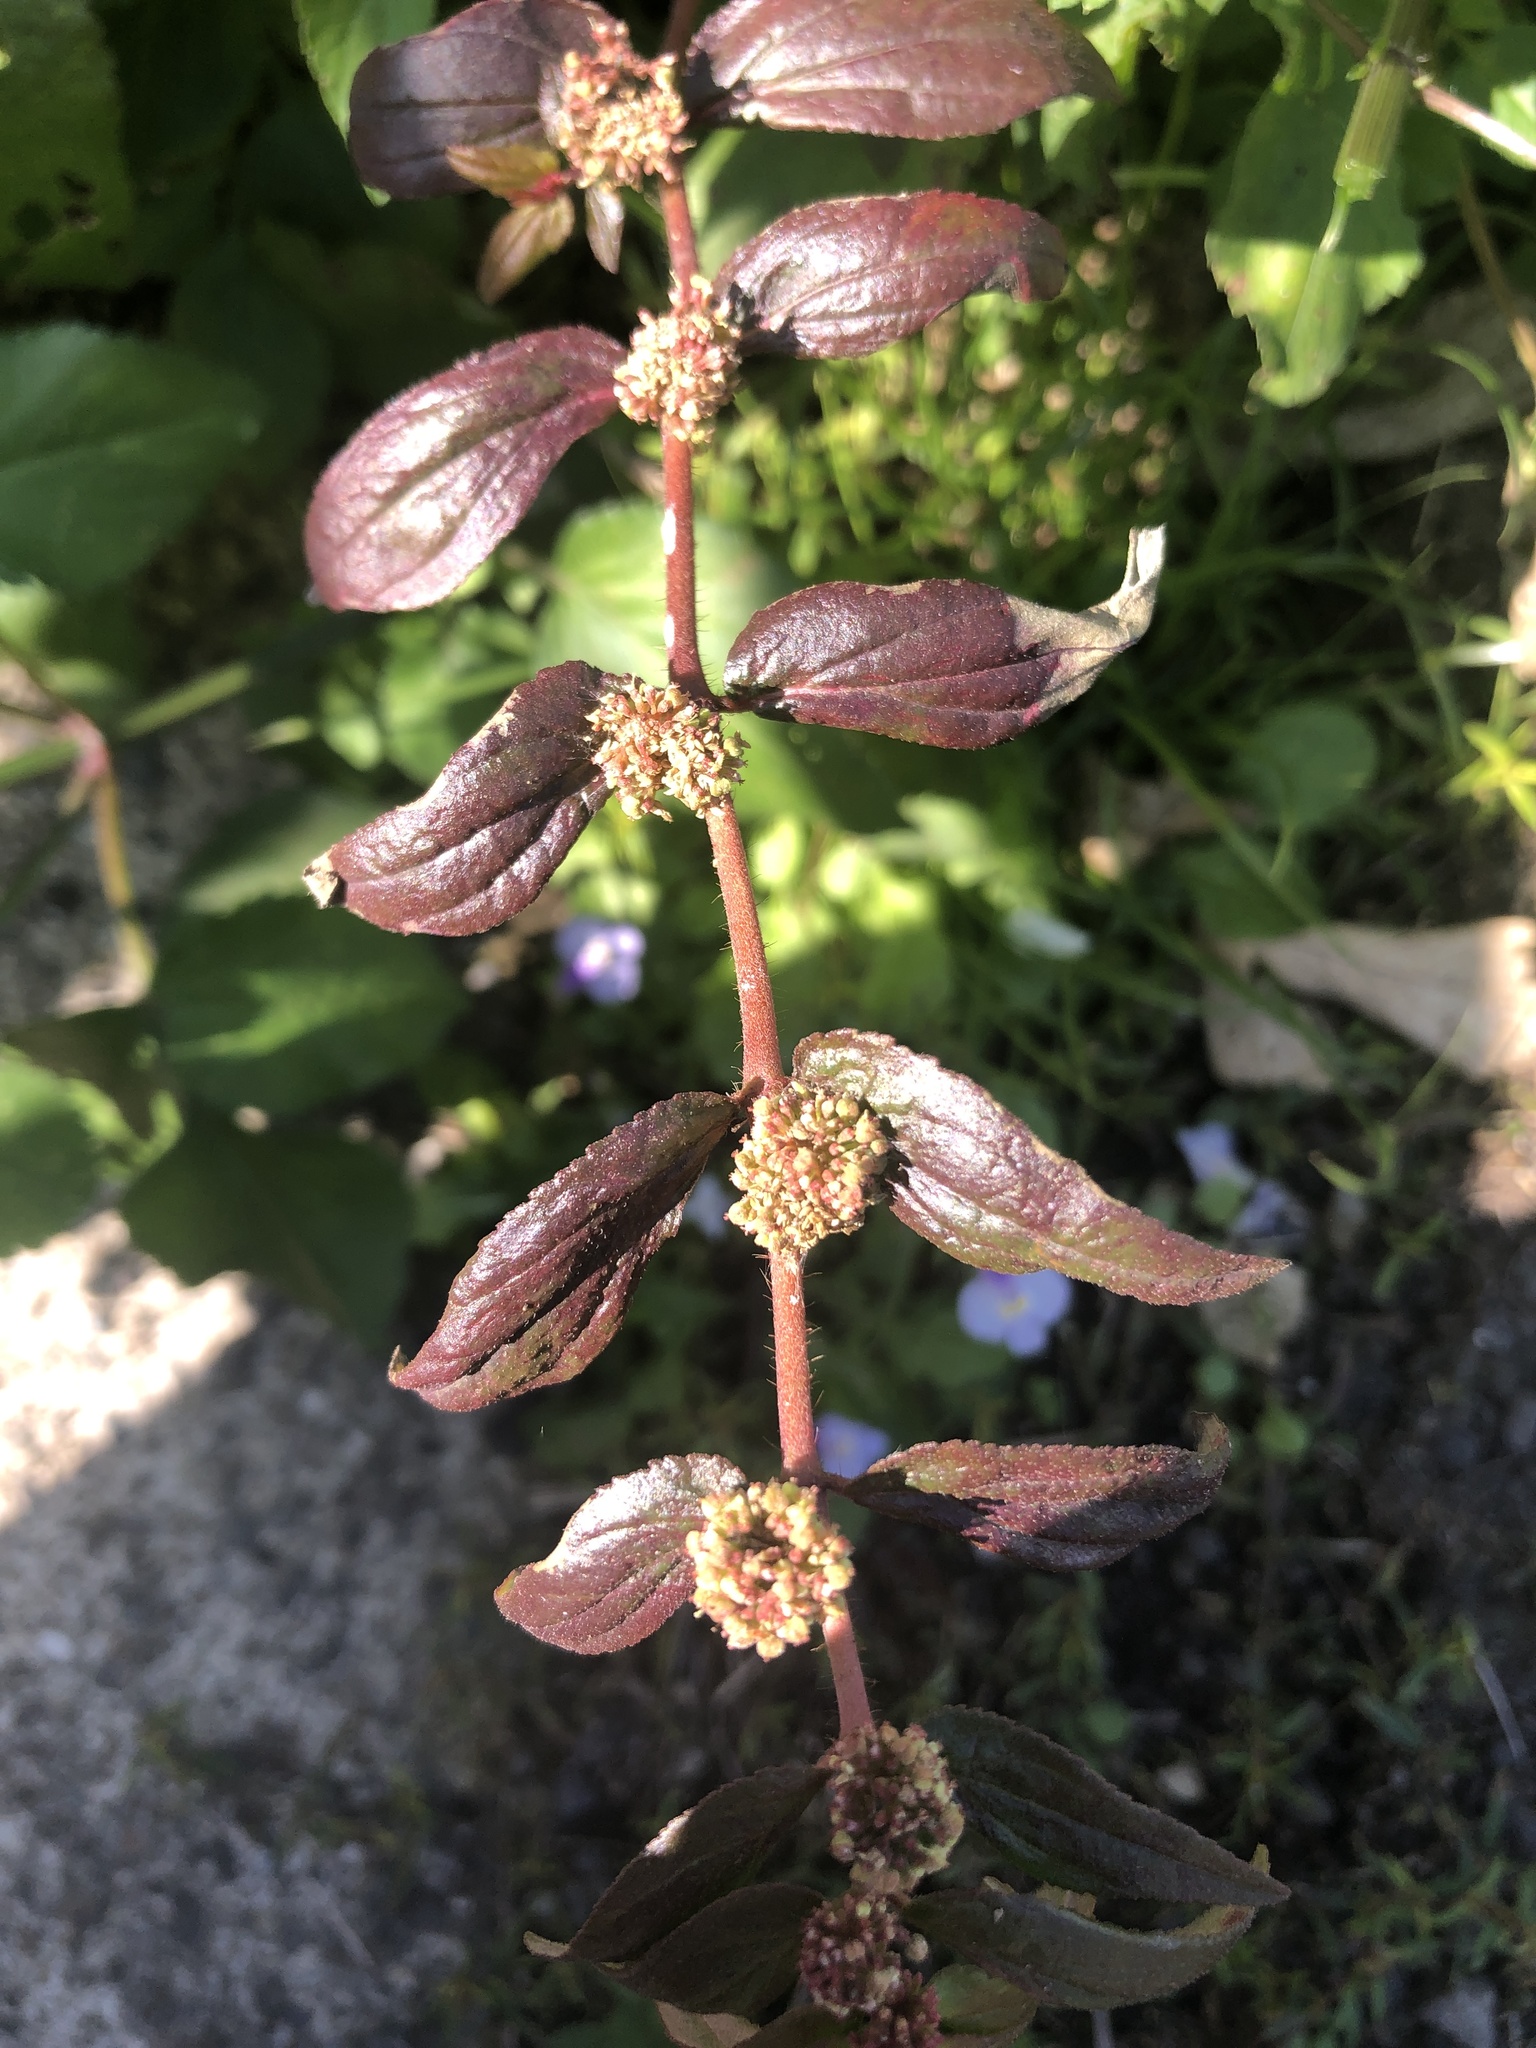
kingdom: Plantae
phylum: Tracheophyta
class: Magnoliopsida
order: Malpighiales
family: Euphorbiaceae
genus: Euphorbia
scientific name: Euphorbia hirta
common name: Pillpod sandmat
